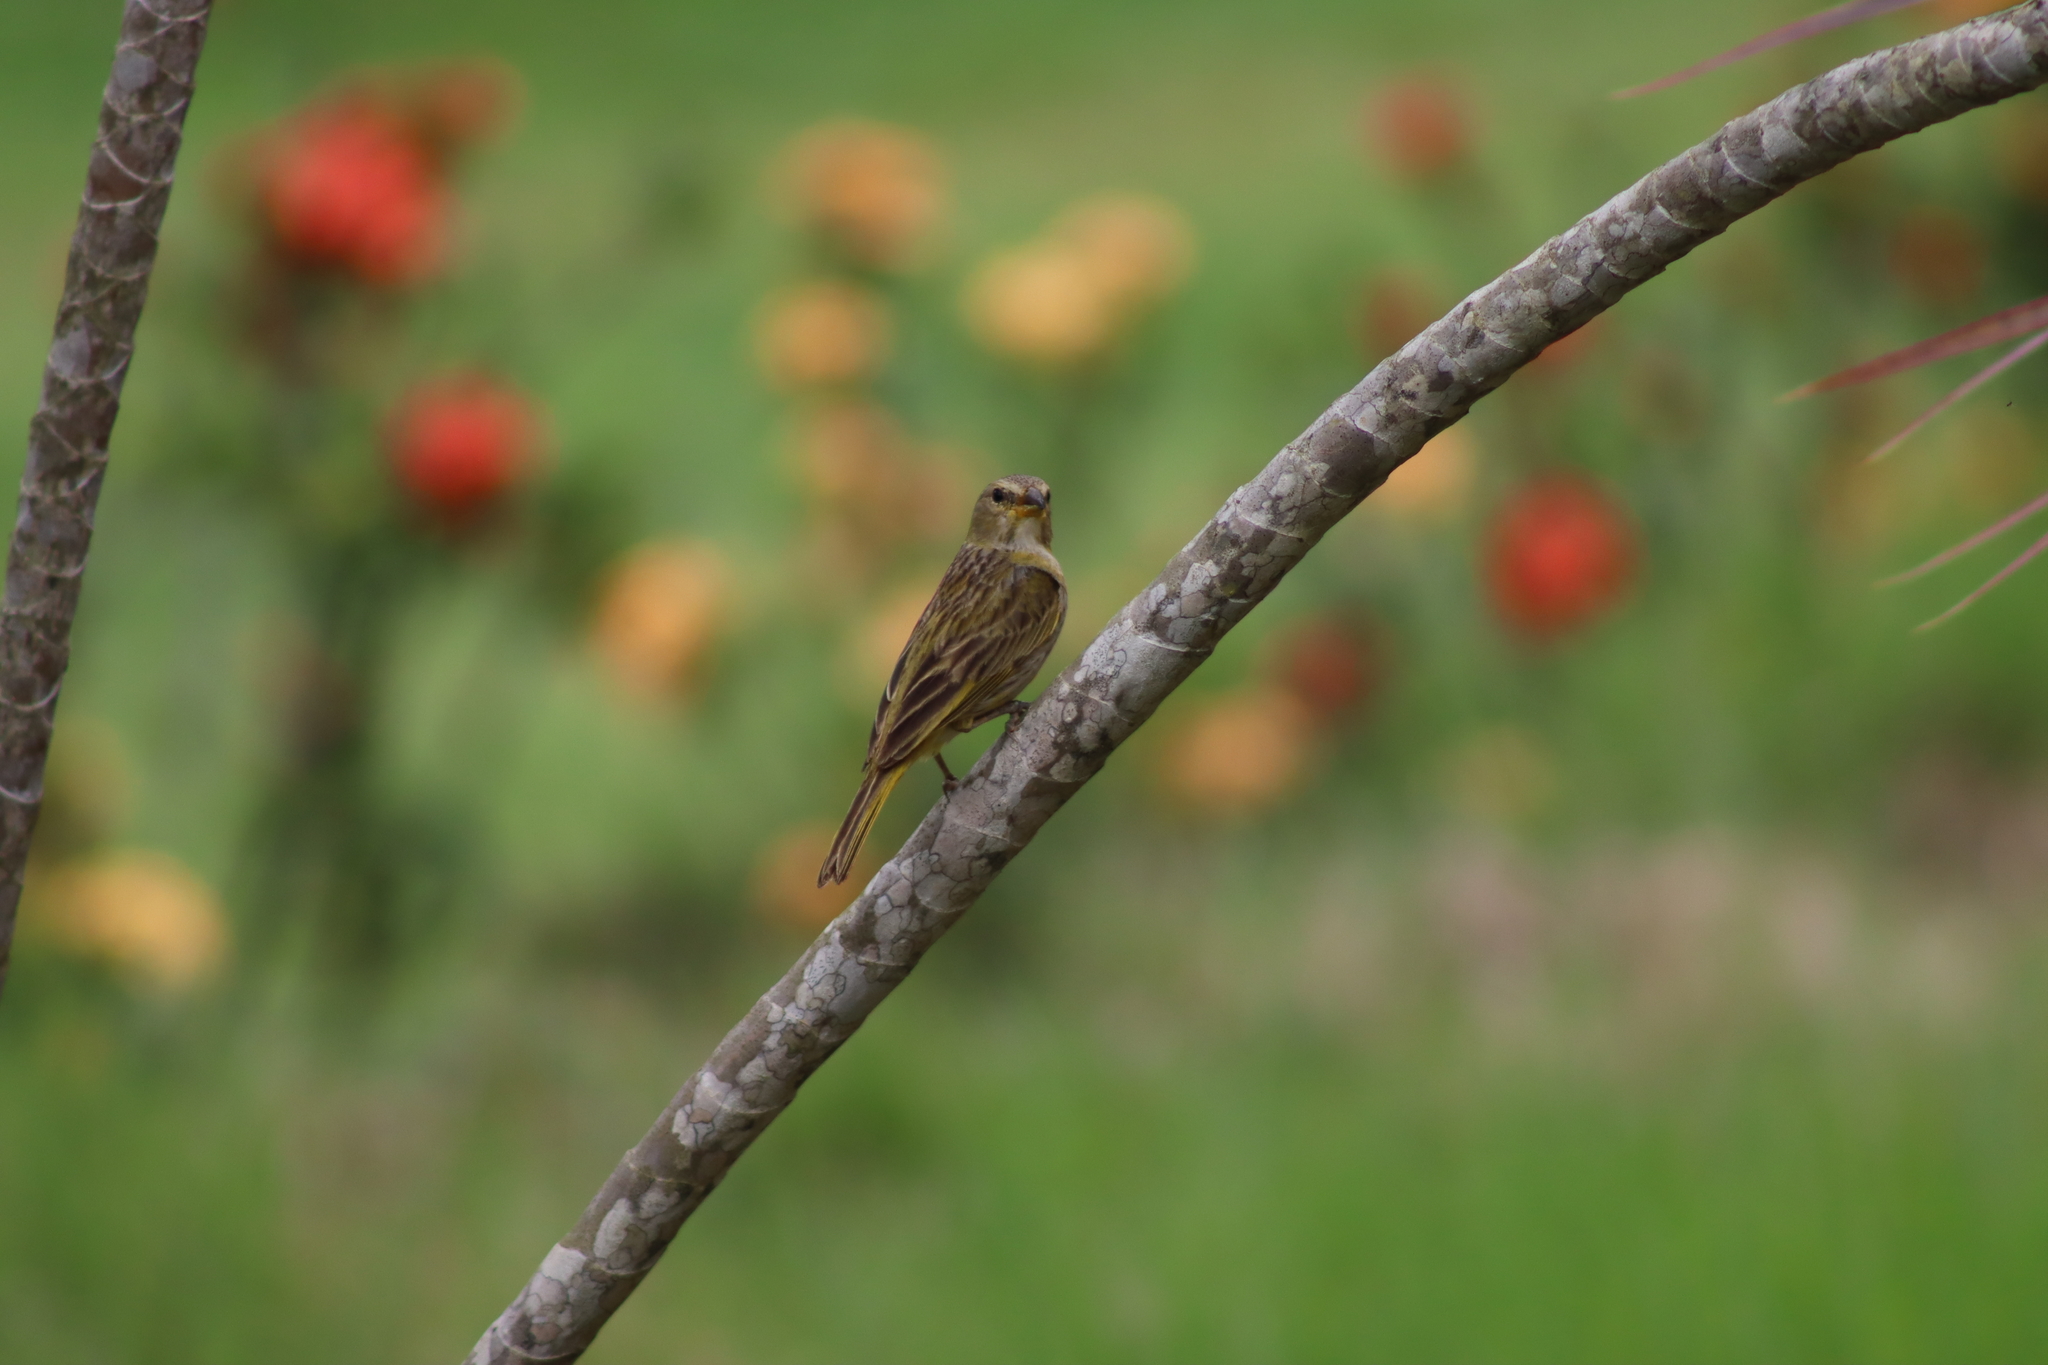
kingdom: Animalia
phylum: Chordata
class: Aves
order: Passeriformes
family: Thraupidae
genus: Sicalis
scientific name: Sicalis flaveola
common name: Saffron finch
